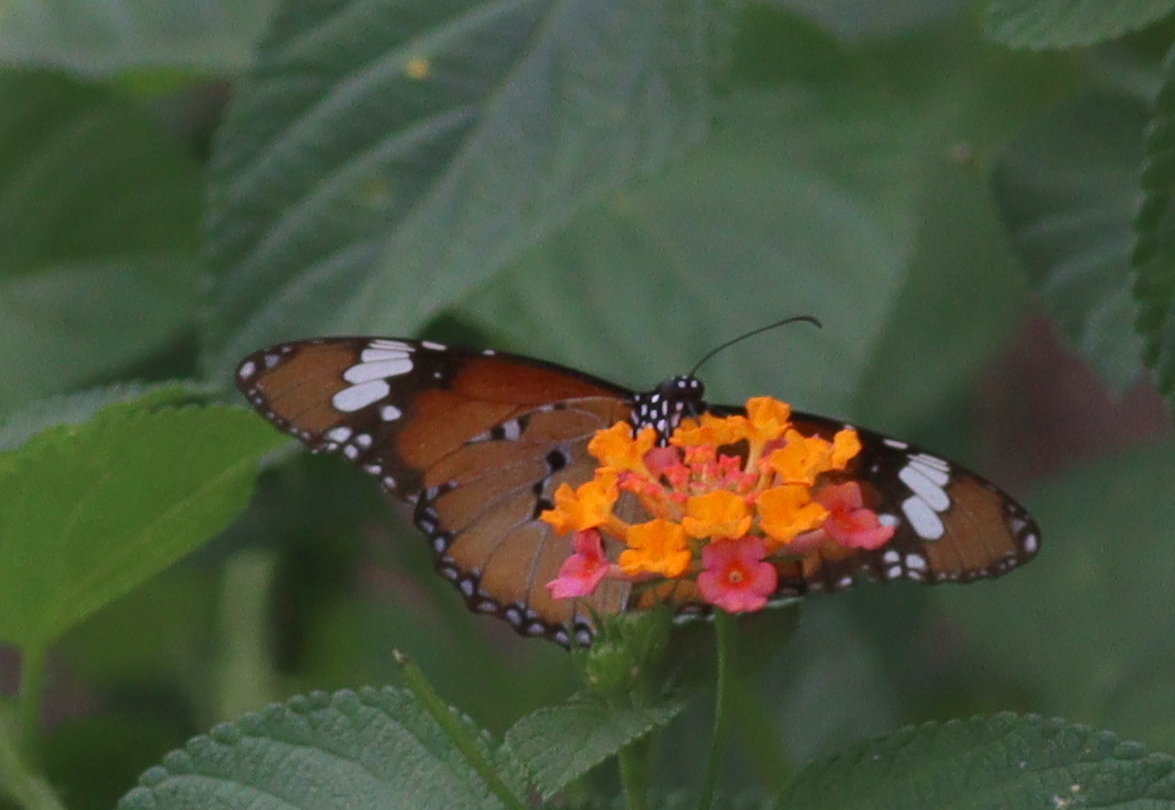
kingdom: Animalia
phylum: Arthropoda
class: Insecta
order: Lepidoptera
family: Nymphalidae
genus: Danaus
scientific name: Danaus chrysippus
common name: Plain tiger
